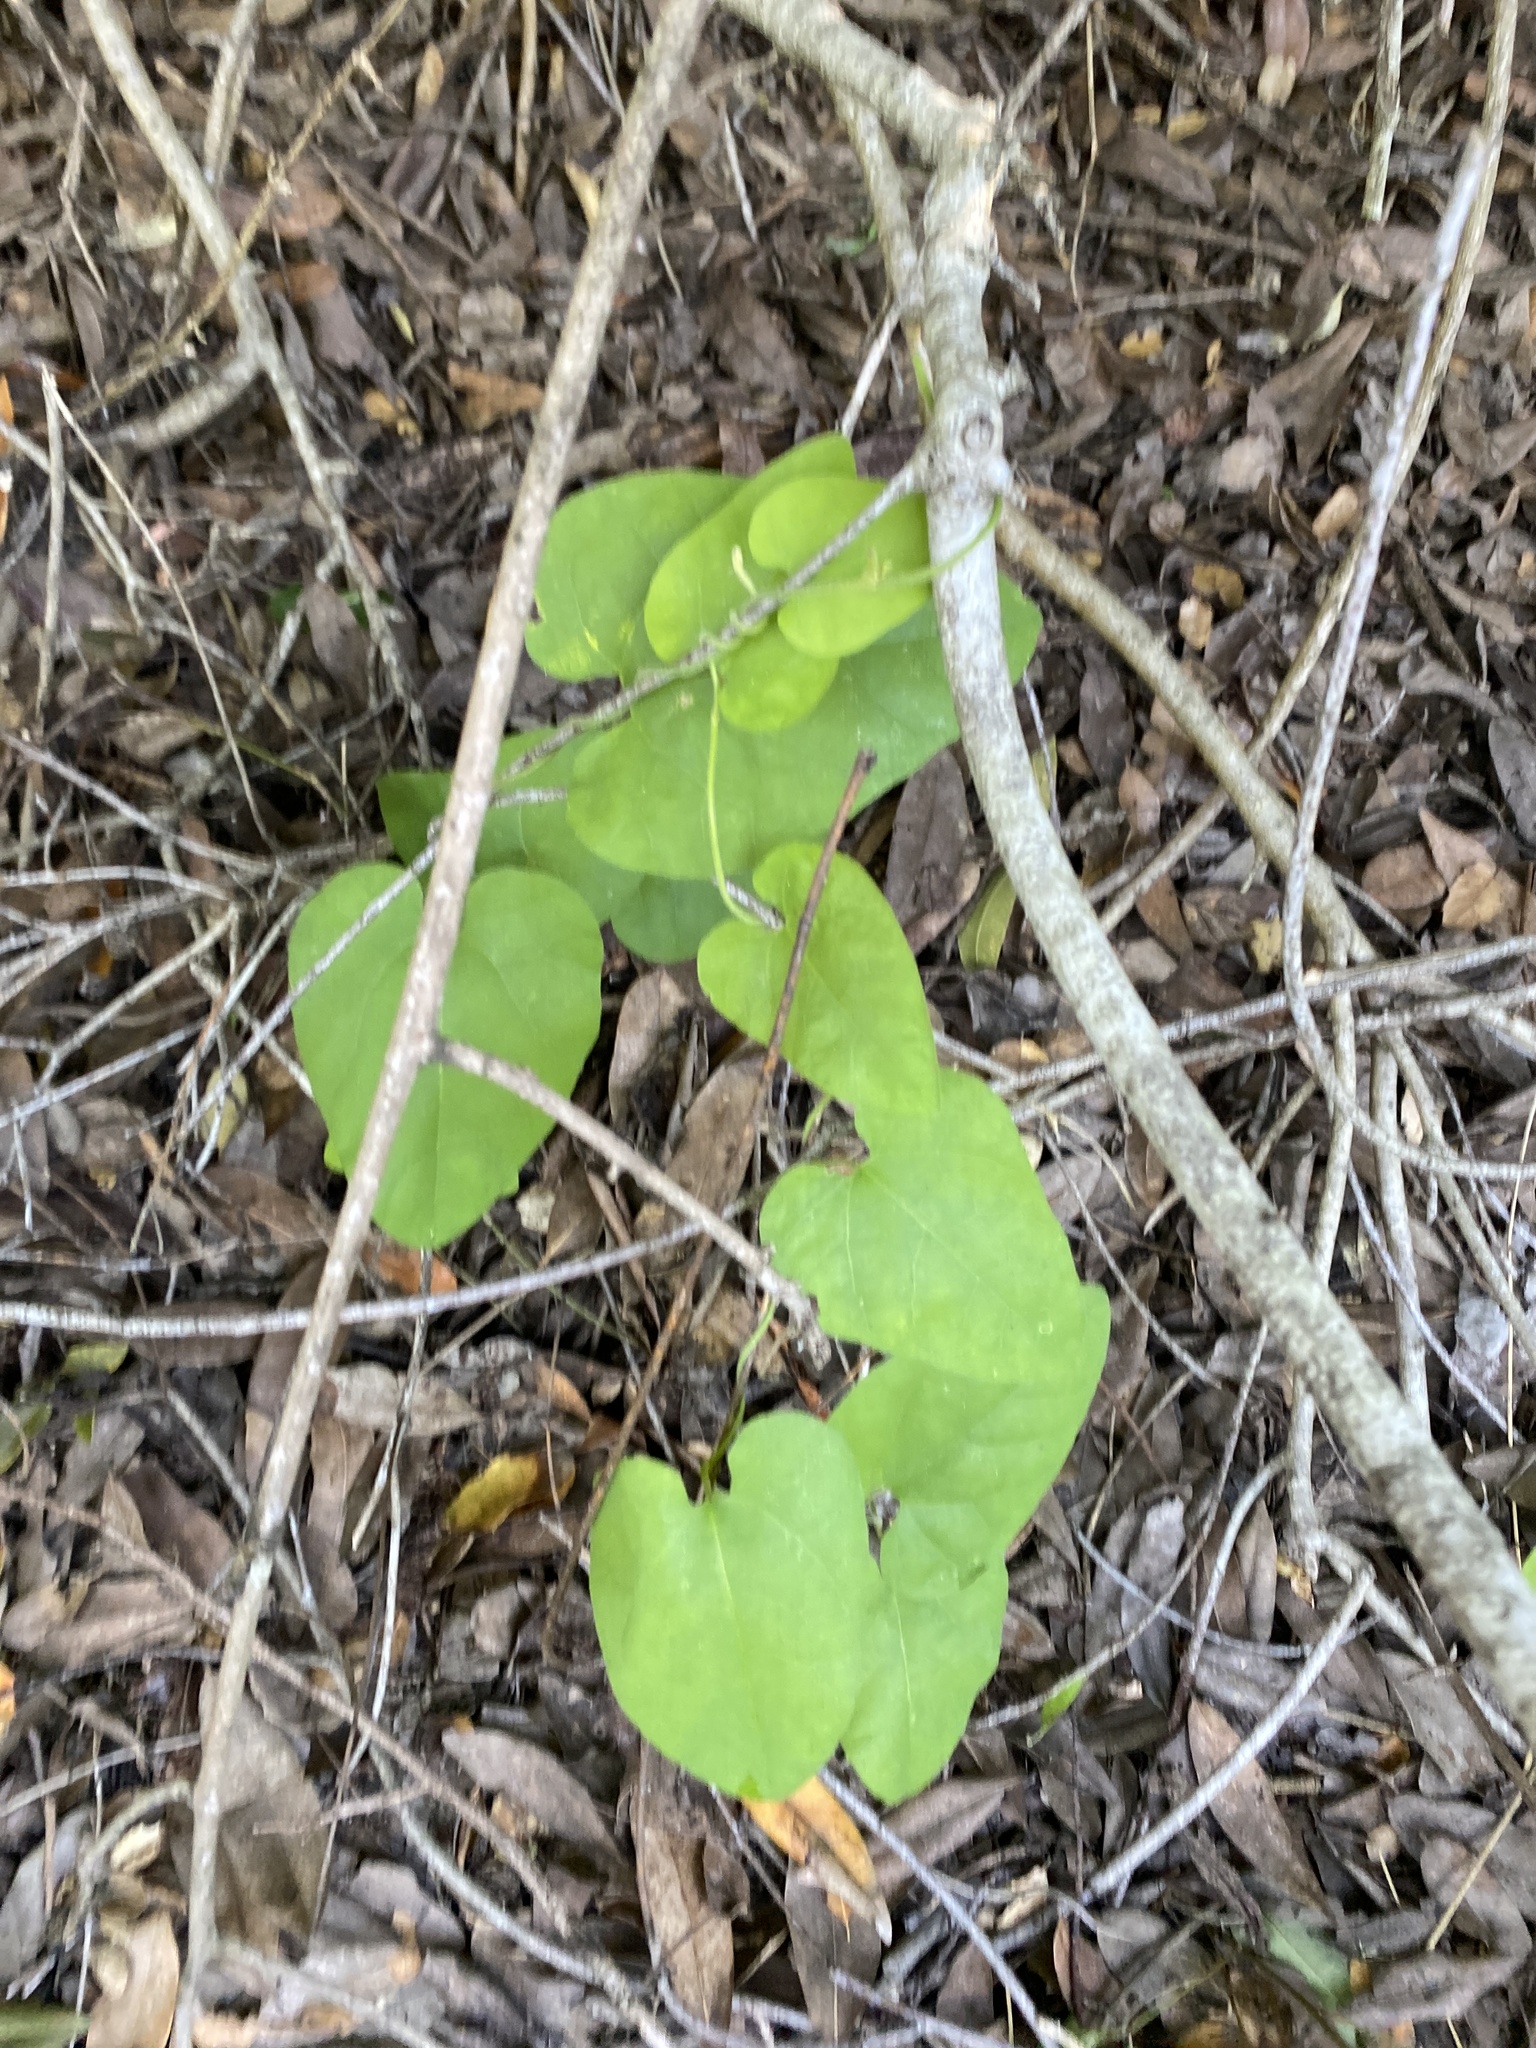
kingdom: Plantae
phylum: Tracheophyta
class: Magnoliopsida
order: Piperales
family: Aristolochiaceae
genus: Isotrema
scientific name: Isotrema californicum
